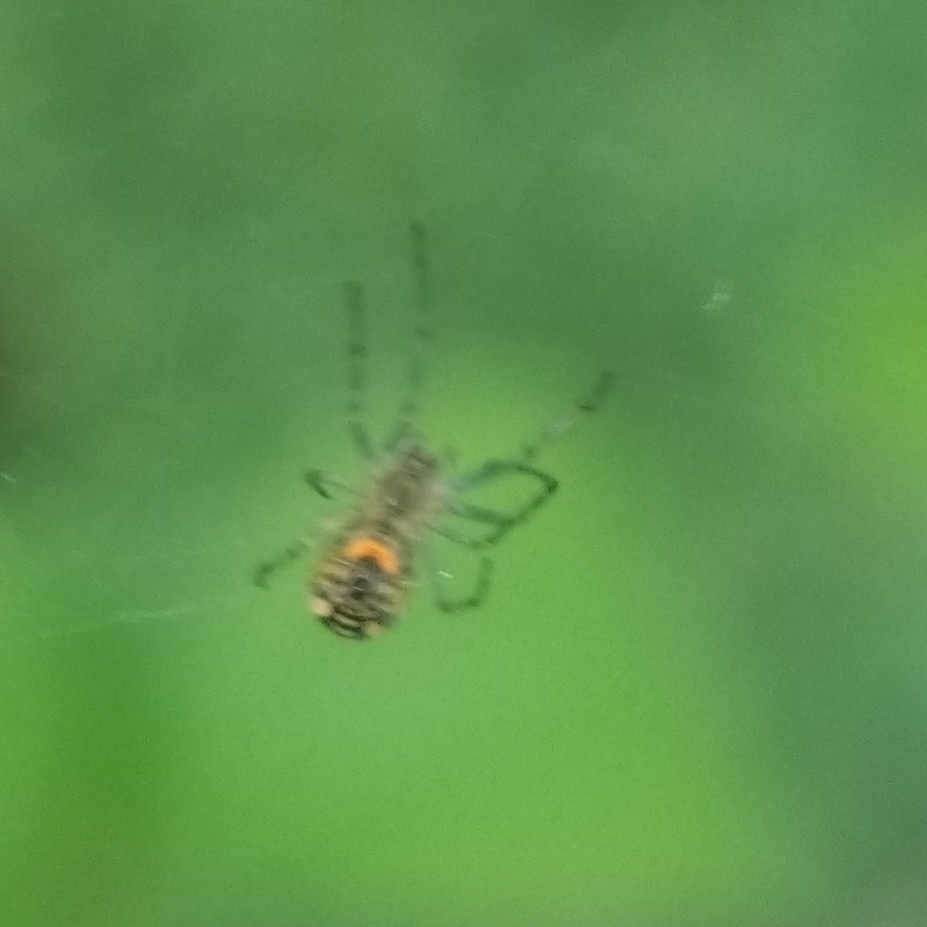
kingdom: Animalia
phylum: Arthropoda
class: Arachnida
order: Araneae
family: Tetragnathidae
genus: Leucauge
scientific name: Leucauge venusta
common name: Longjawed orb weavers
